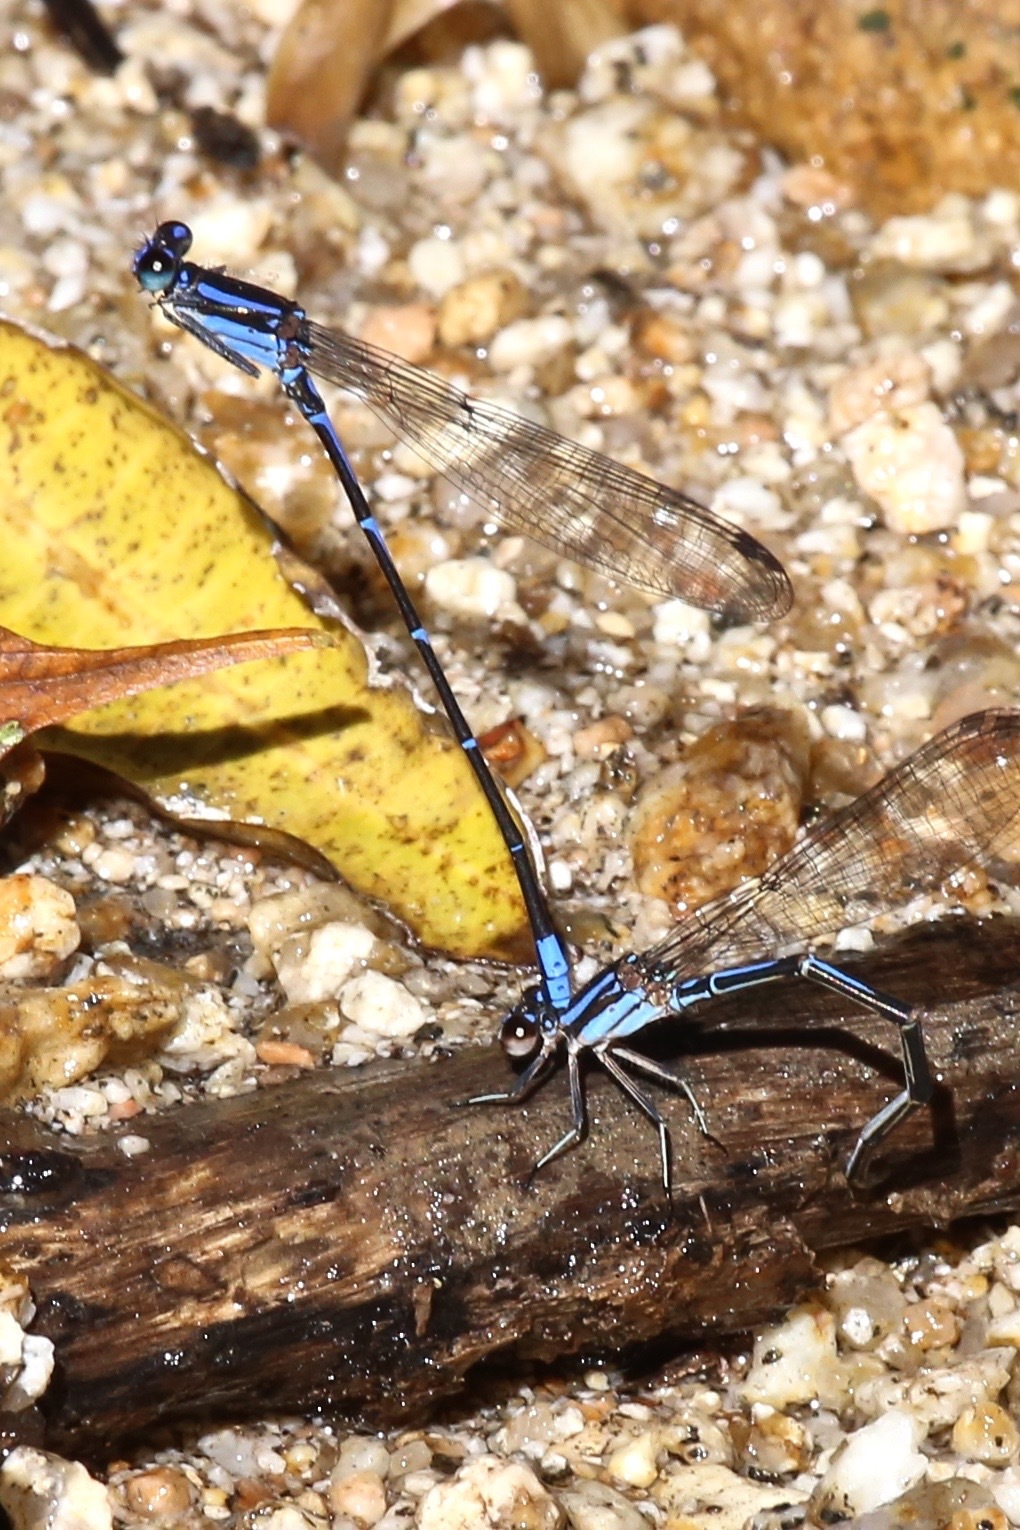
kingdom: Animalia
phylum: Arthropoda
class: Insecta
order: Odonata
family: Coenagrionidae
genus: Argia
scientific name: Argia oculata
